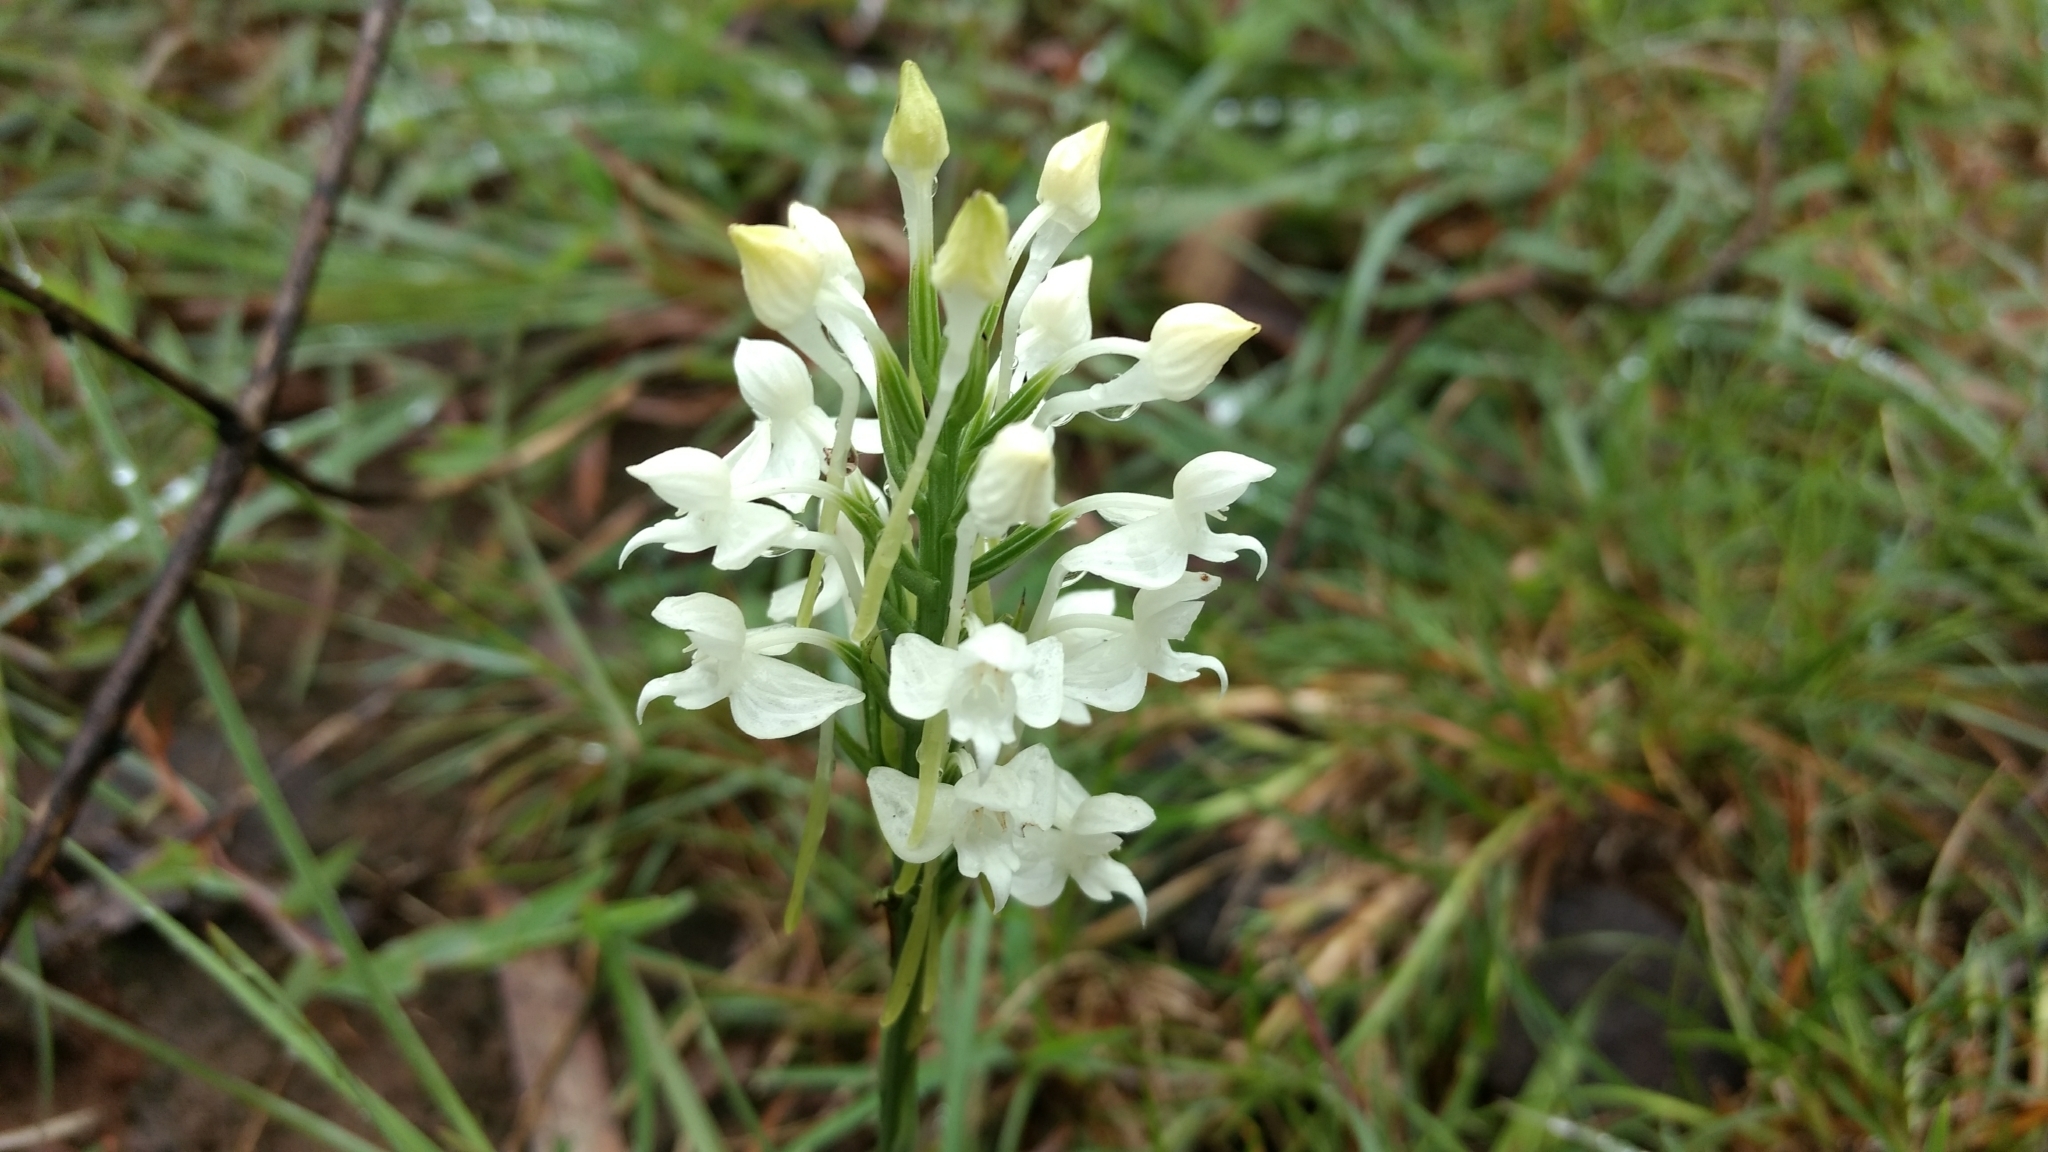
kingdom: Plantae
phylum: Tracheophyta
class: Liliopsida
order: Asparagales
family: Orchidaceae
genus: Habenaria
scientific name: Habenaria roxburghii
